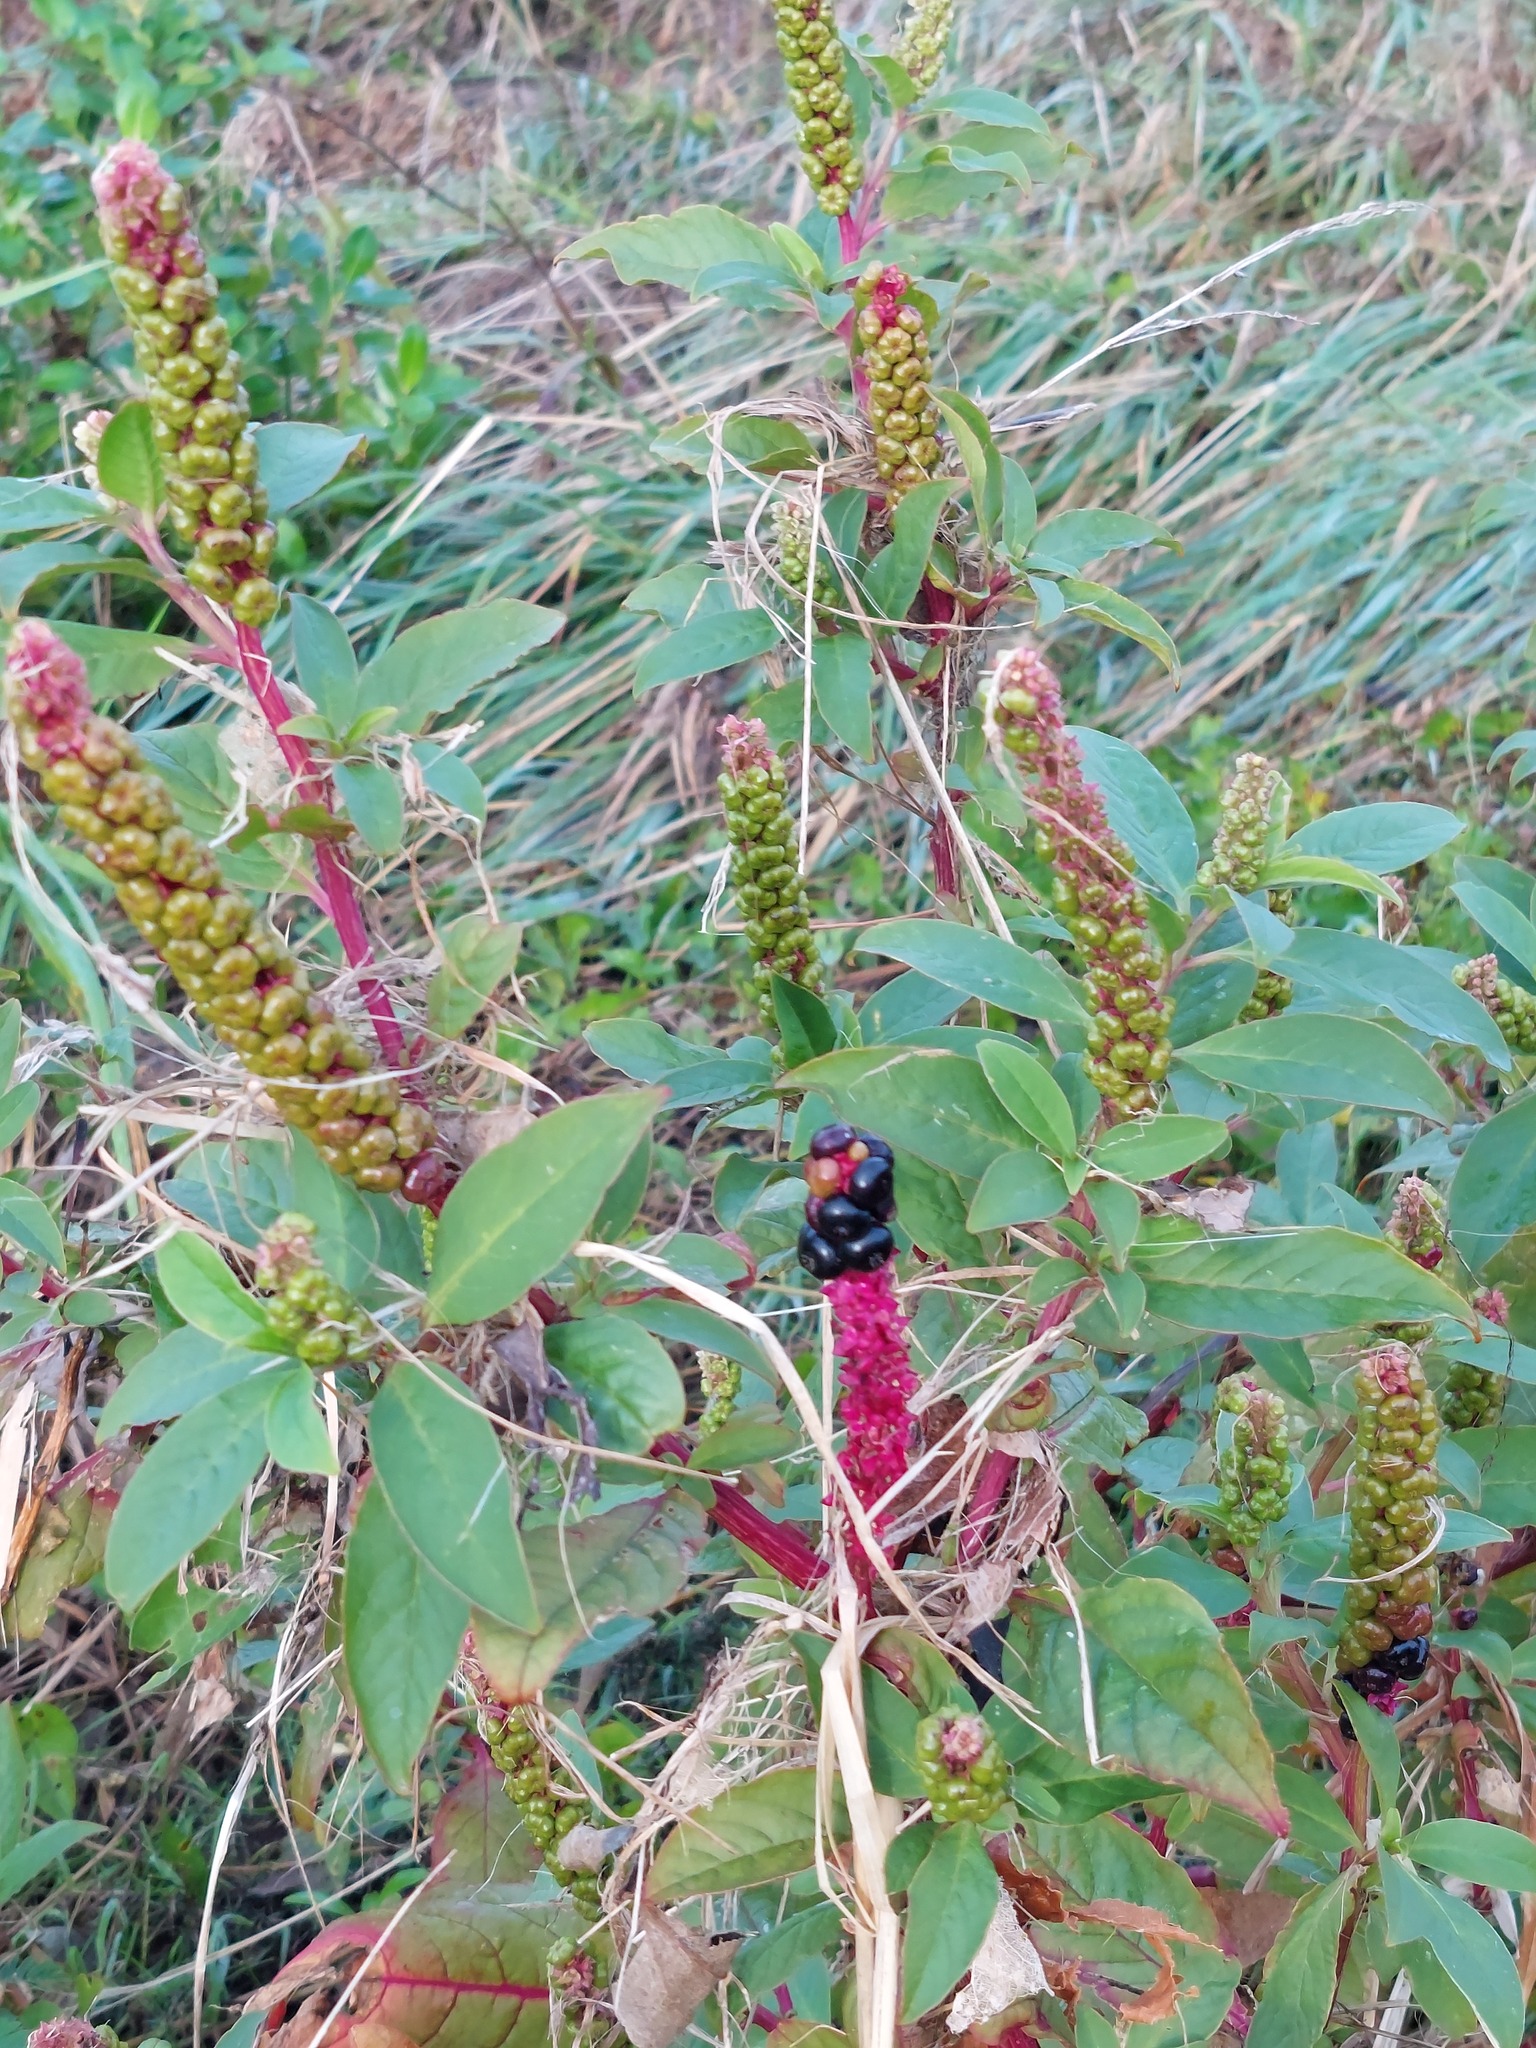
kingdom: Plantae
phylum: Tracheophyta
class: Magnoliopsida
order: Caryophyllales
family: Phytolaccaceae
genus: Phytolacca
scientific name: Phytolacca icosandra
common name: Button pokeweed
